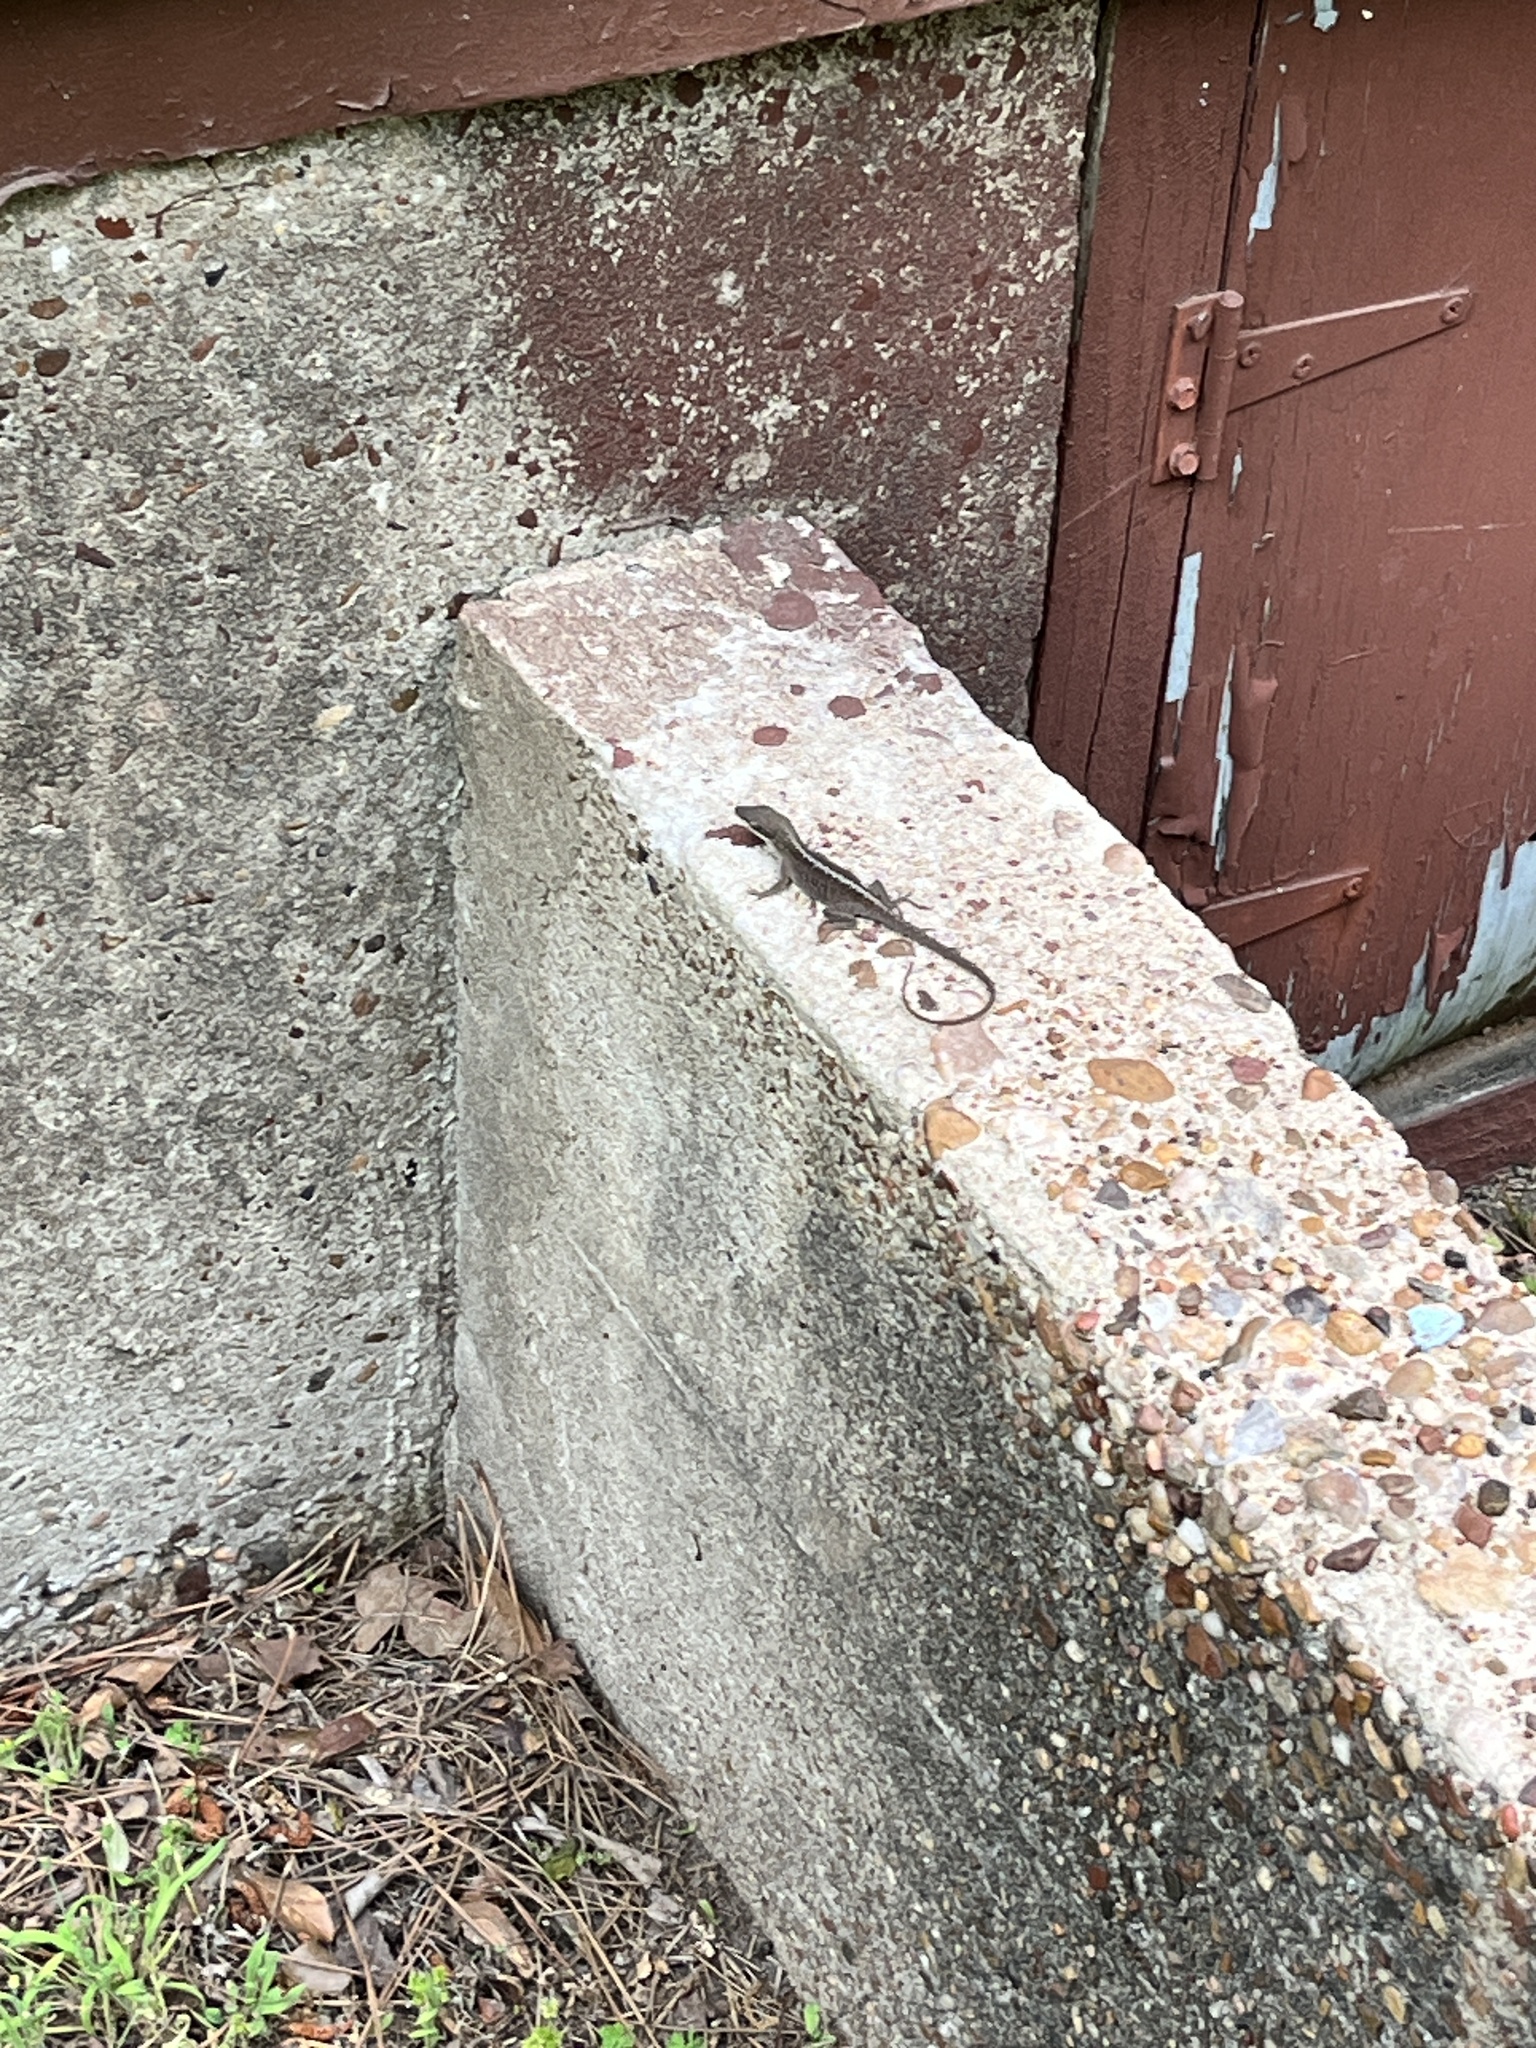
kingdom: Animalia
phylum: Chordata
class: Squamata
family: Dactyloidae
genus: Anolis
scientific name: Anolis carolinensis
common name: Green anole
